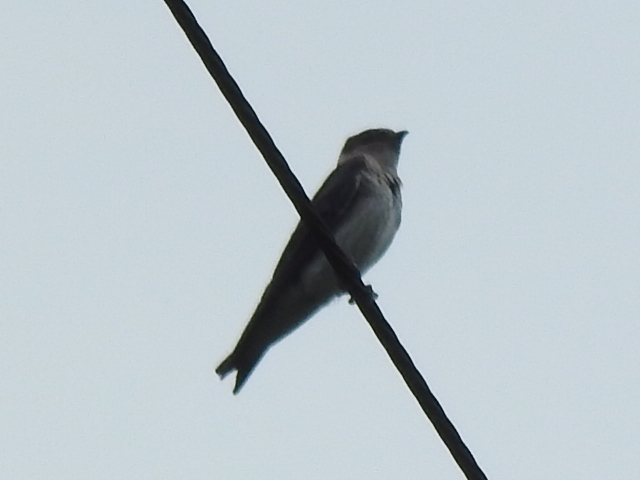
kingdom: Animalia
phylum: Chordata
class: Aves
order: Passeriformes
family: Hirundinidae
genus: Progne
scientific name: Progne subis
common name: Purple martin
